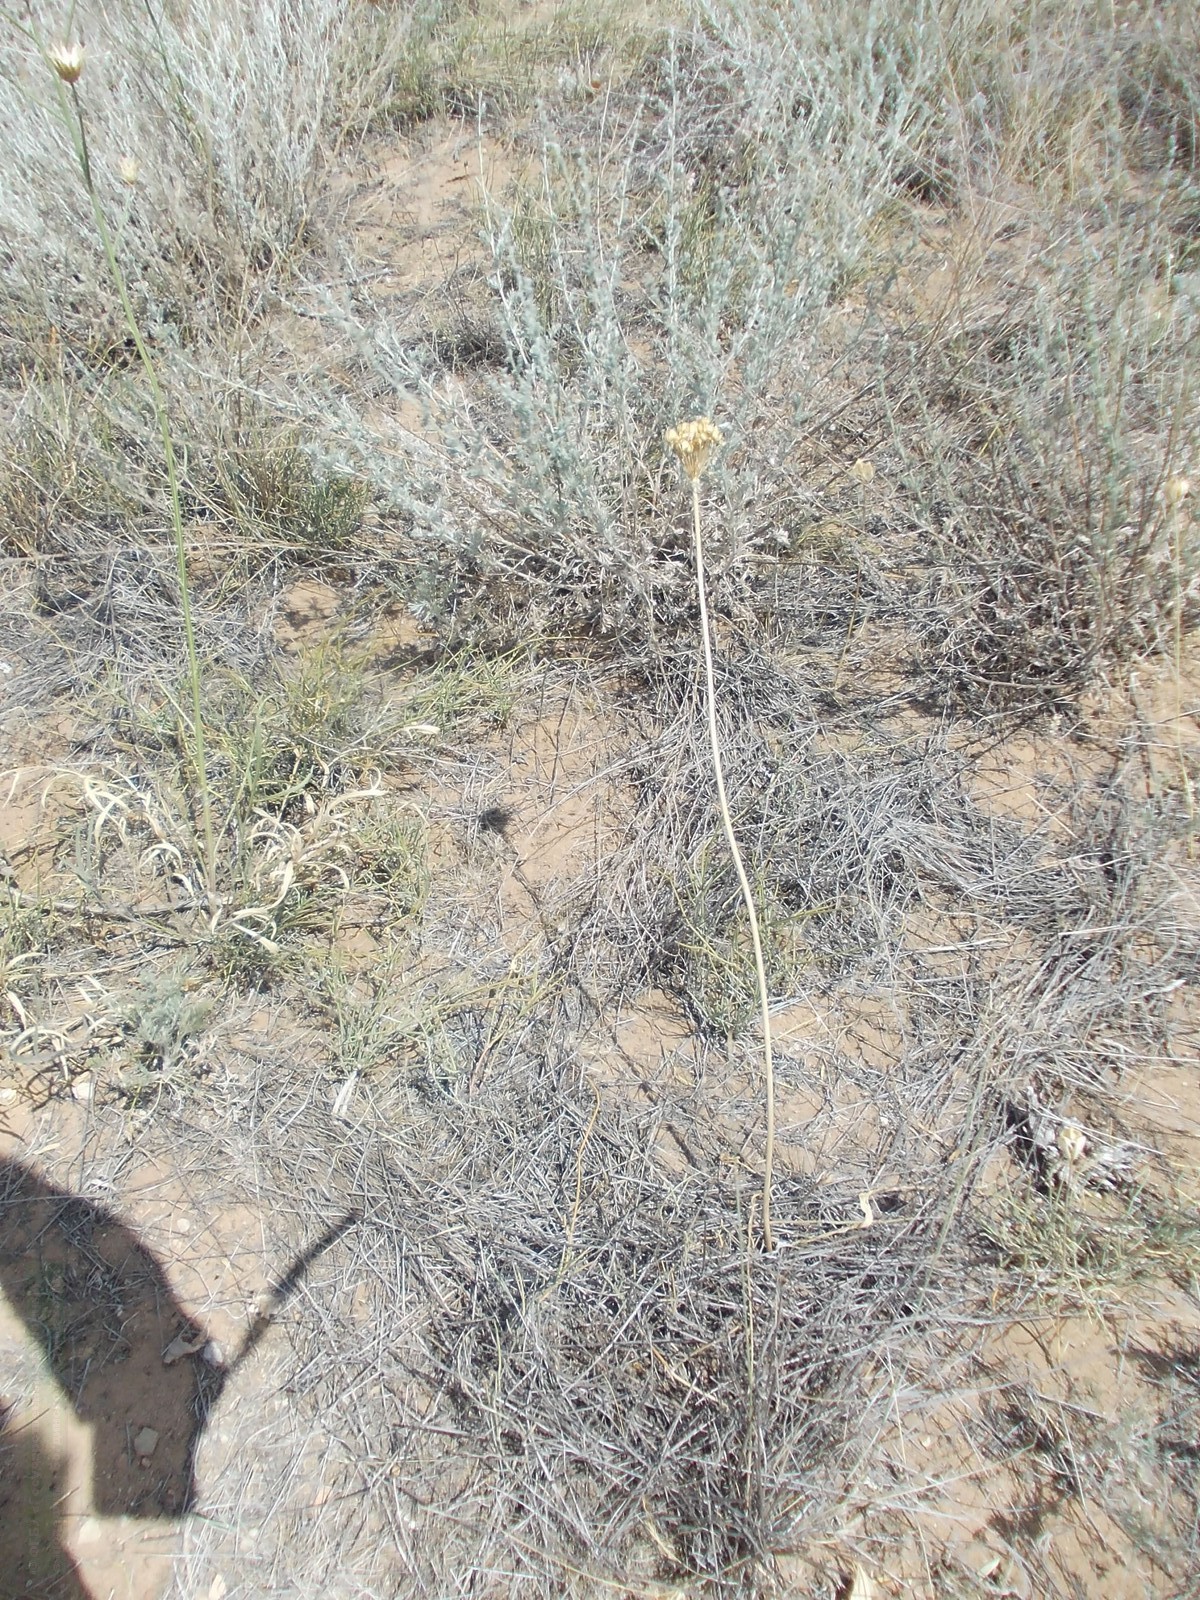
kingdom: Plantae
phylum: Tracheophyta
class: Liliopsida
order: Asparagales
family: Amaryllidaceae
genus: Allium
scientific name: Allium tulipifolium
